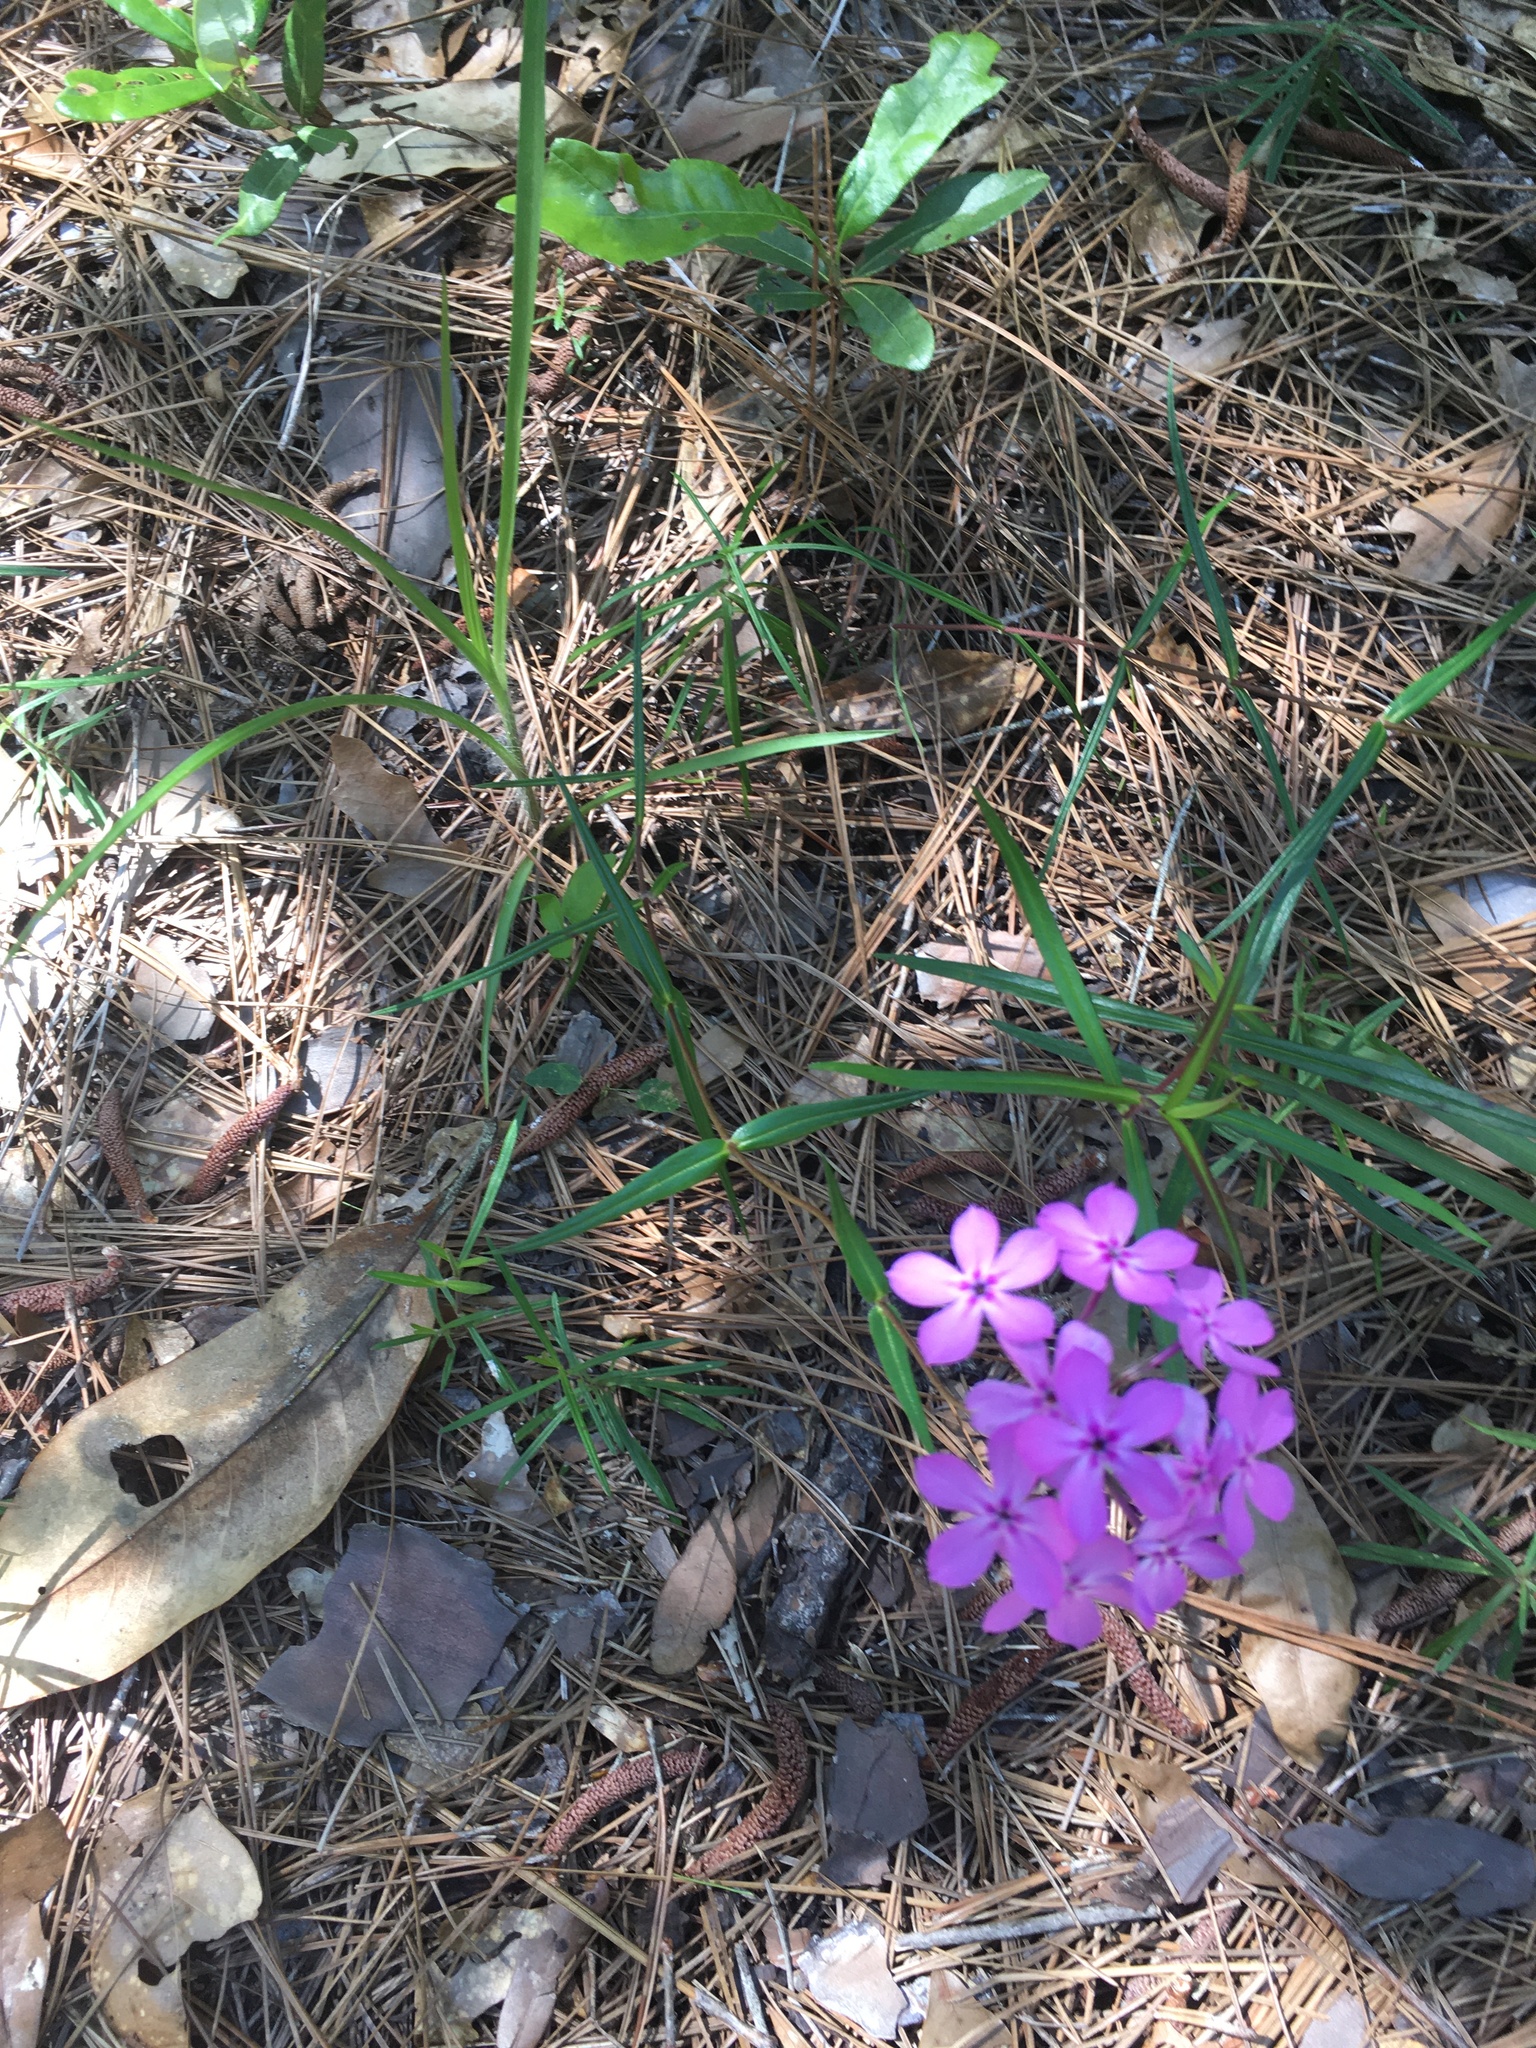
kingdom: Plantae
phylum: Tracheophyta
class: Magnoliopsida
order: Ericales
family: Polemoniaceae
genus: Phlox
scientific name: Phlox pilosa
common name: Prairie phlox
